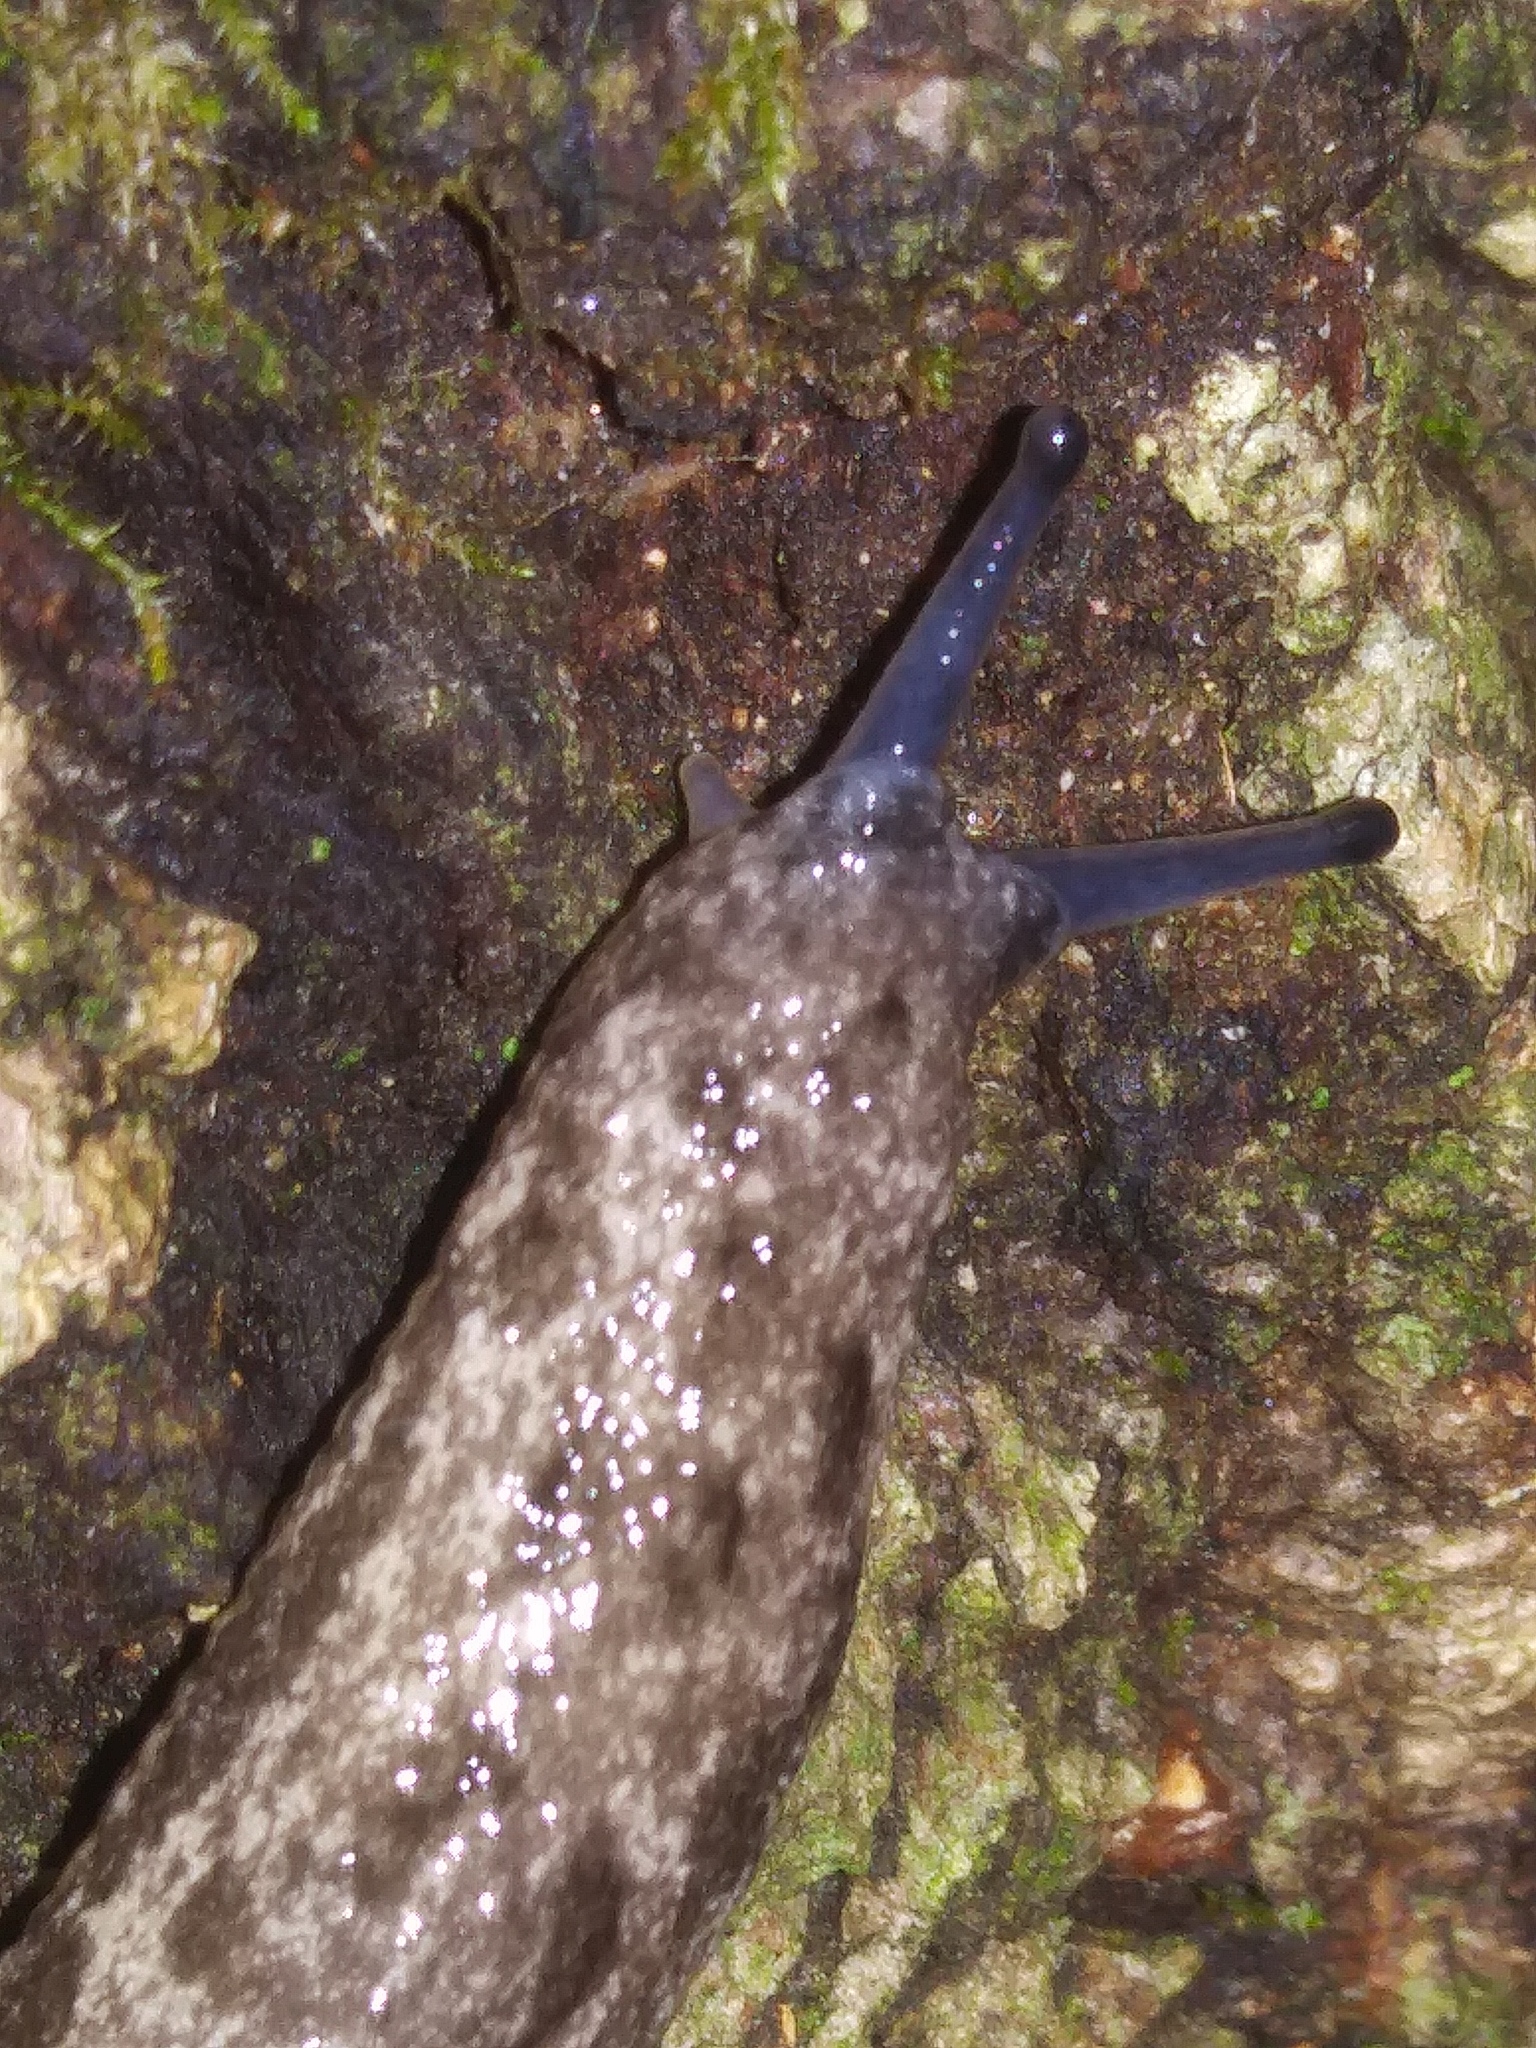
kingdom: Animalia
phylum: Mollusca
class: Gastropoda
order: Stylommatophora
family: Philomycidae
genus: Megapallifera
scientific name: Megapallifera mutabilis
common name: Changeable mantleslug
